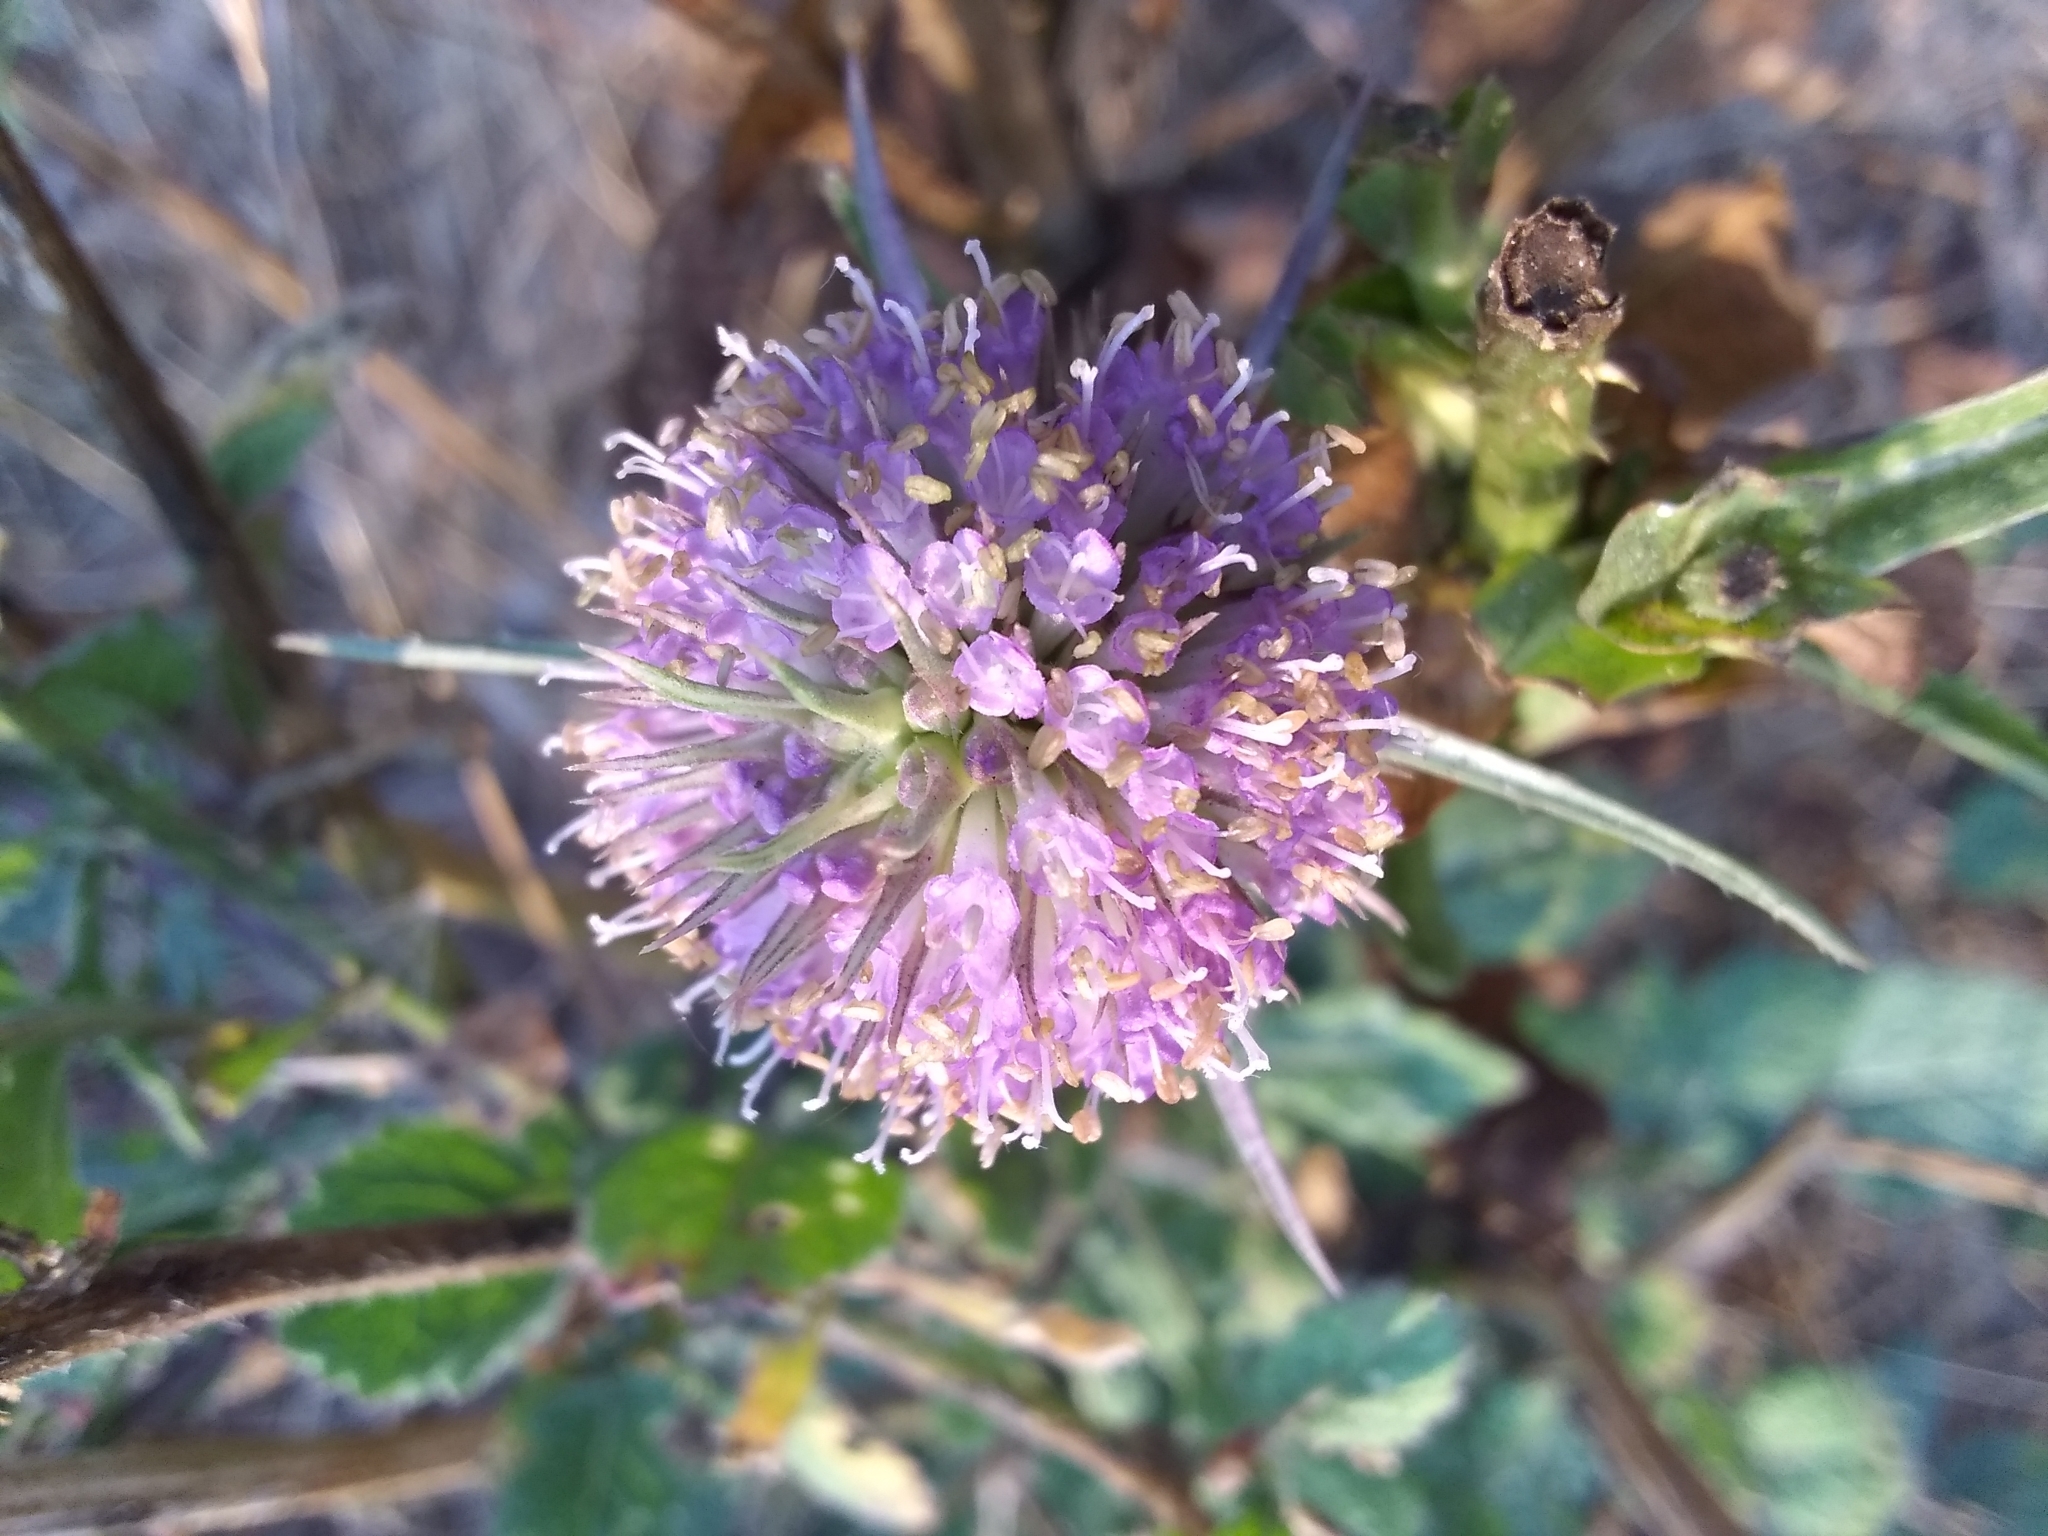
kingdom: Plantae
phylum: Tracheophyta
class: Magnoliopsida
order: Dipsacales
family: Caprifoliaceae
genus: Dipsacus
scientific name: Dipsacus sativus
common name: Fuller's teasel
